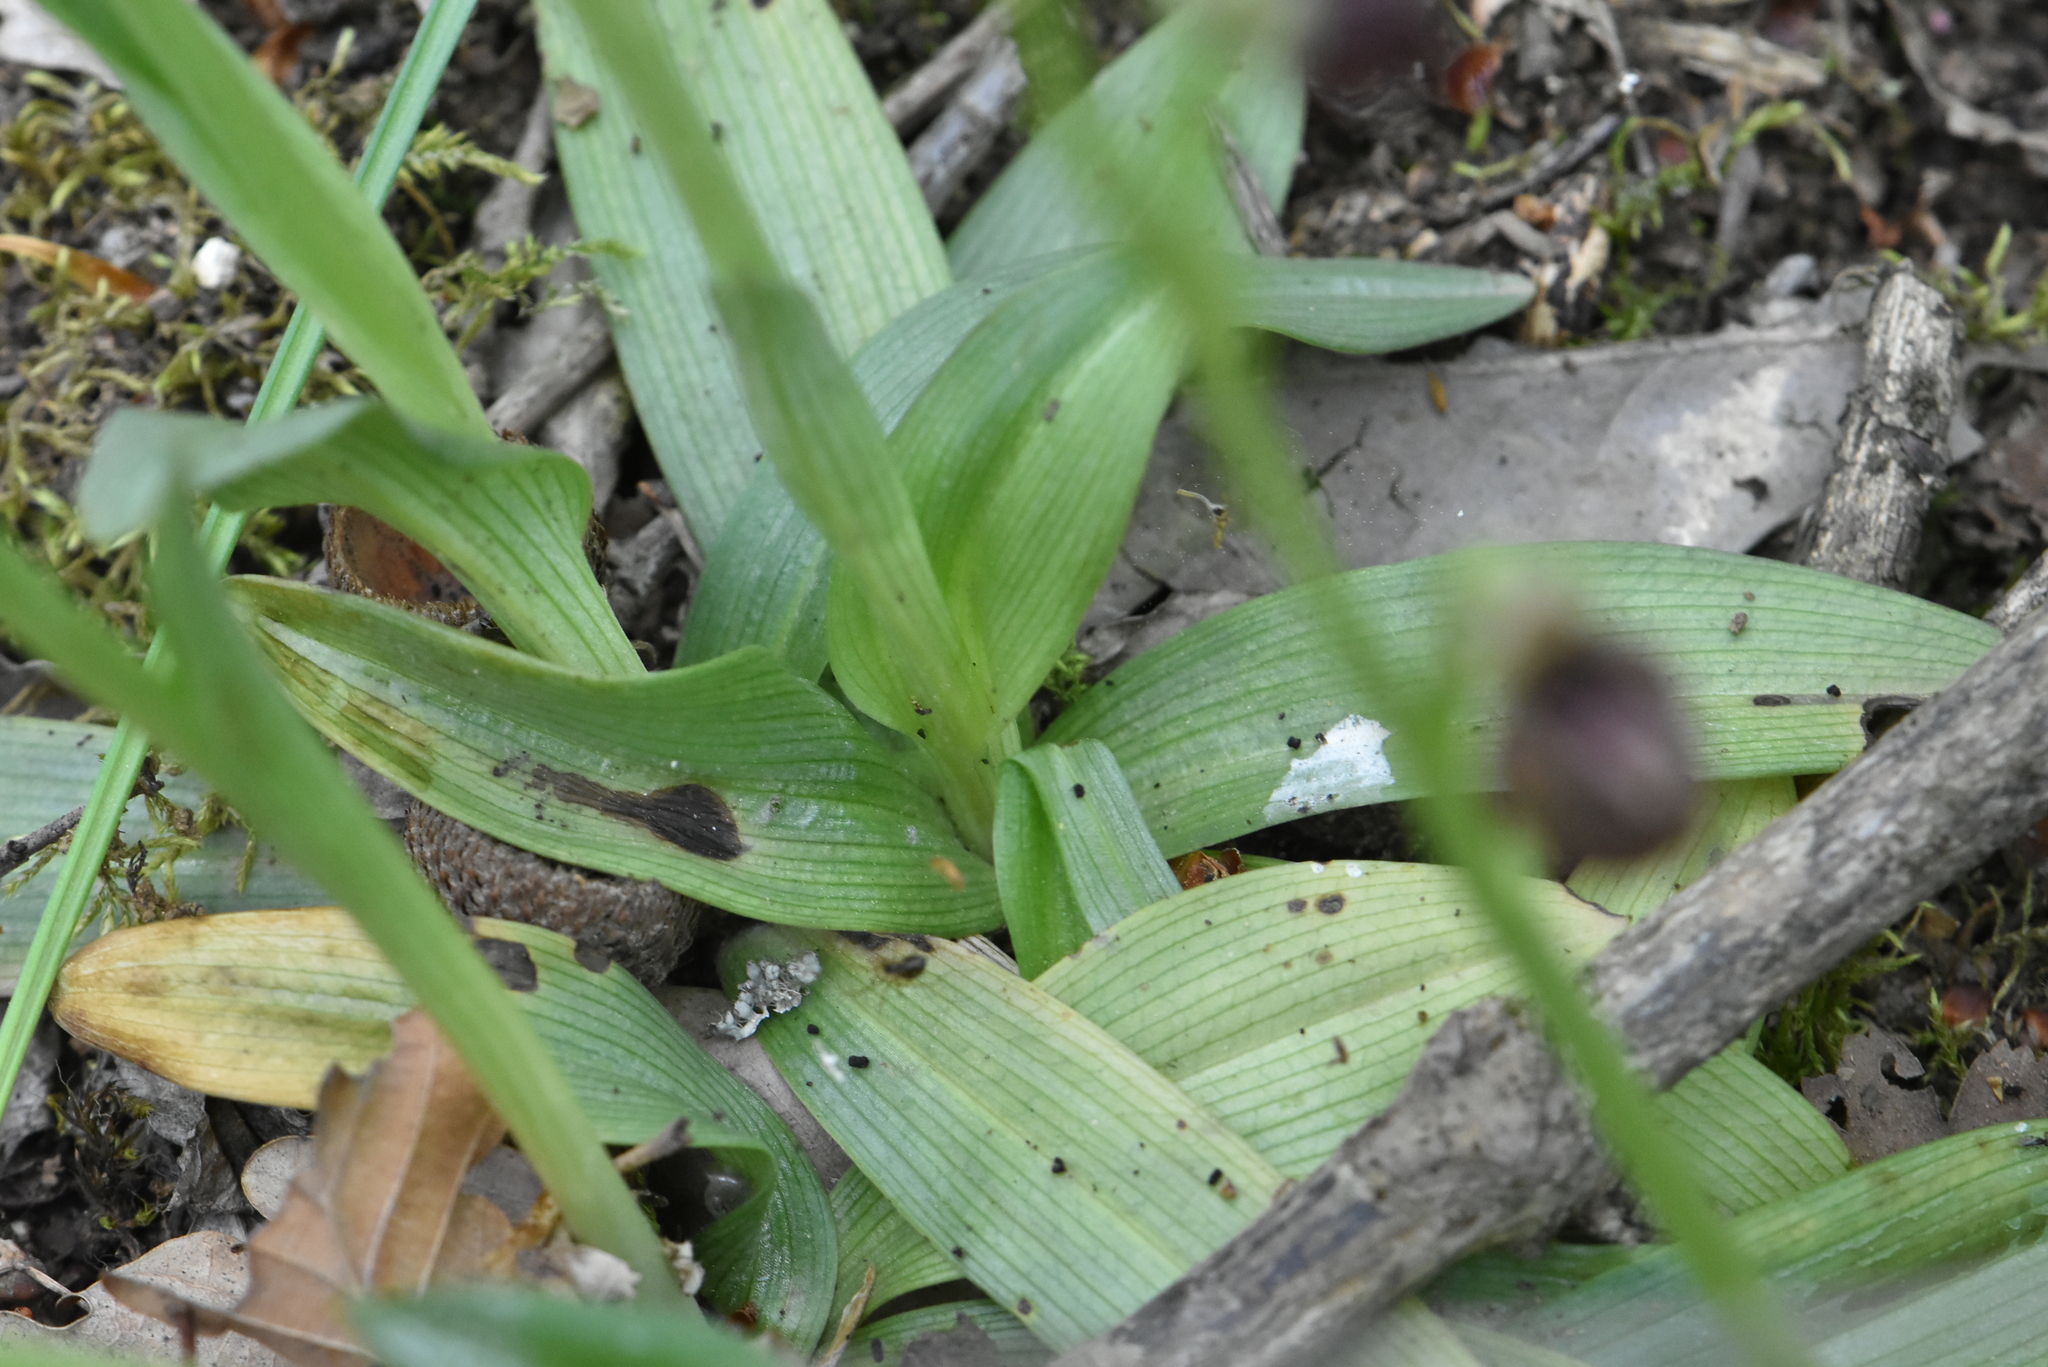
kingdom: Plantae
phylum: Tracheophyta
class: Liliopsida
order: Asparagales
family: Orchidaceae
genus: Ophrys
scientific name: Ophrys sphegodes
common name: Early spider-orchid
